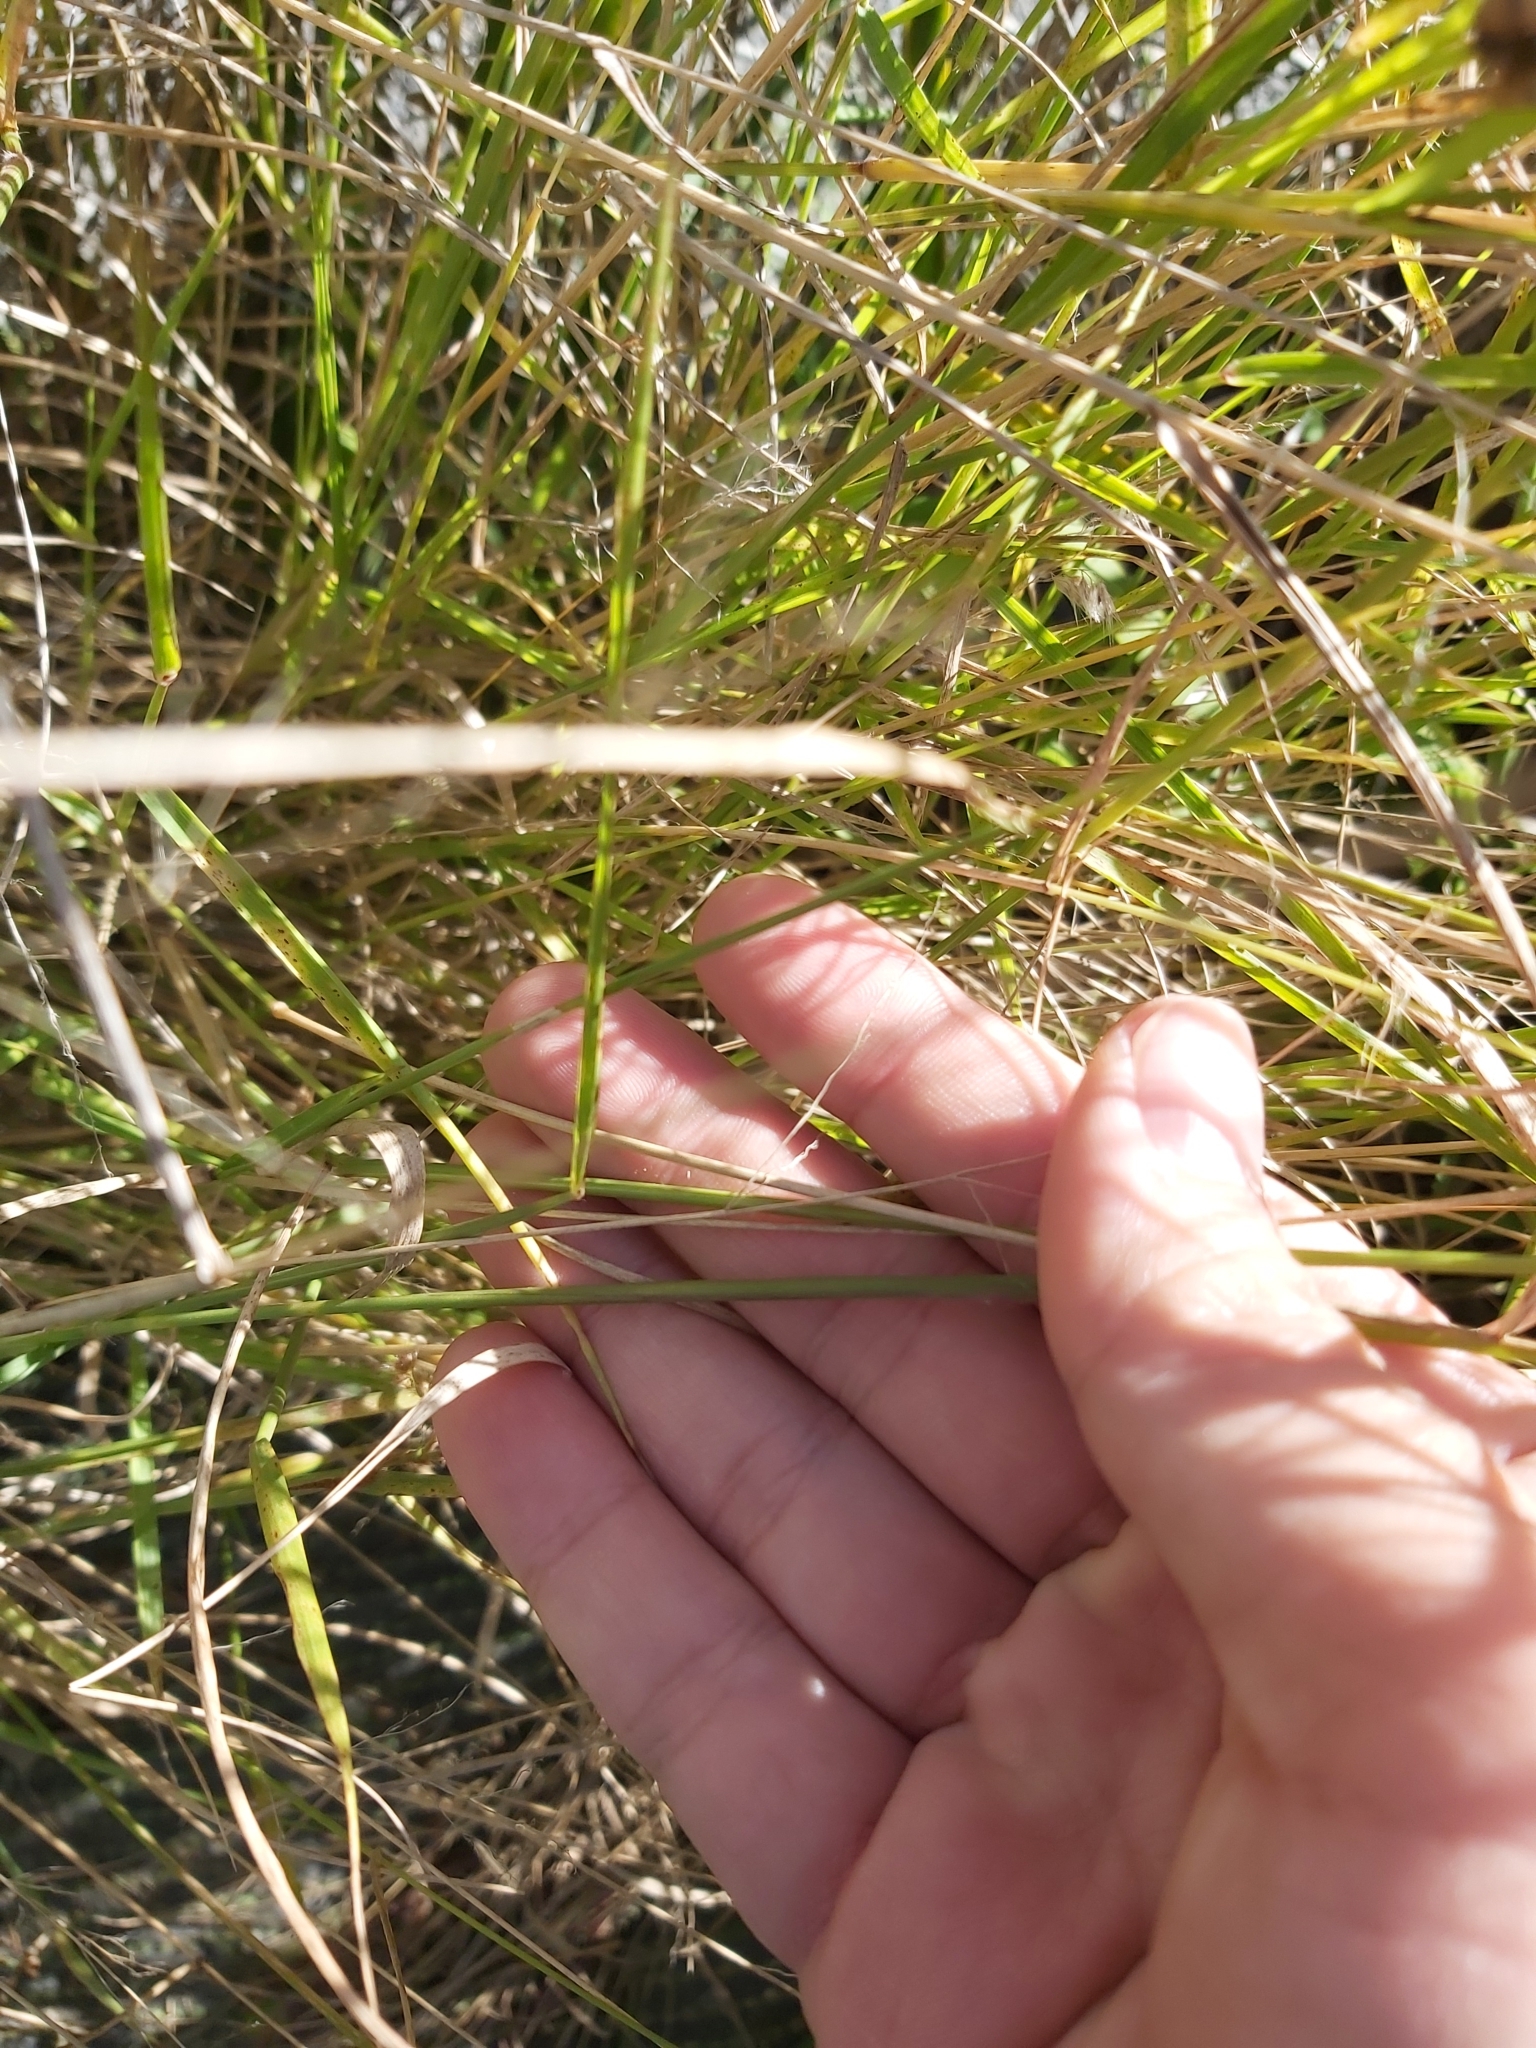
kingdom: Plantae
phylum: Tracheophyta
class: Liliopsida
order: Poales
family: Poaceae
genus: Melinis
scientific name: Melinis repens
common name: Rose natal grass
